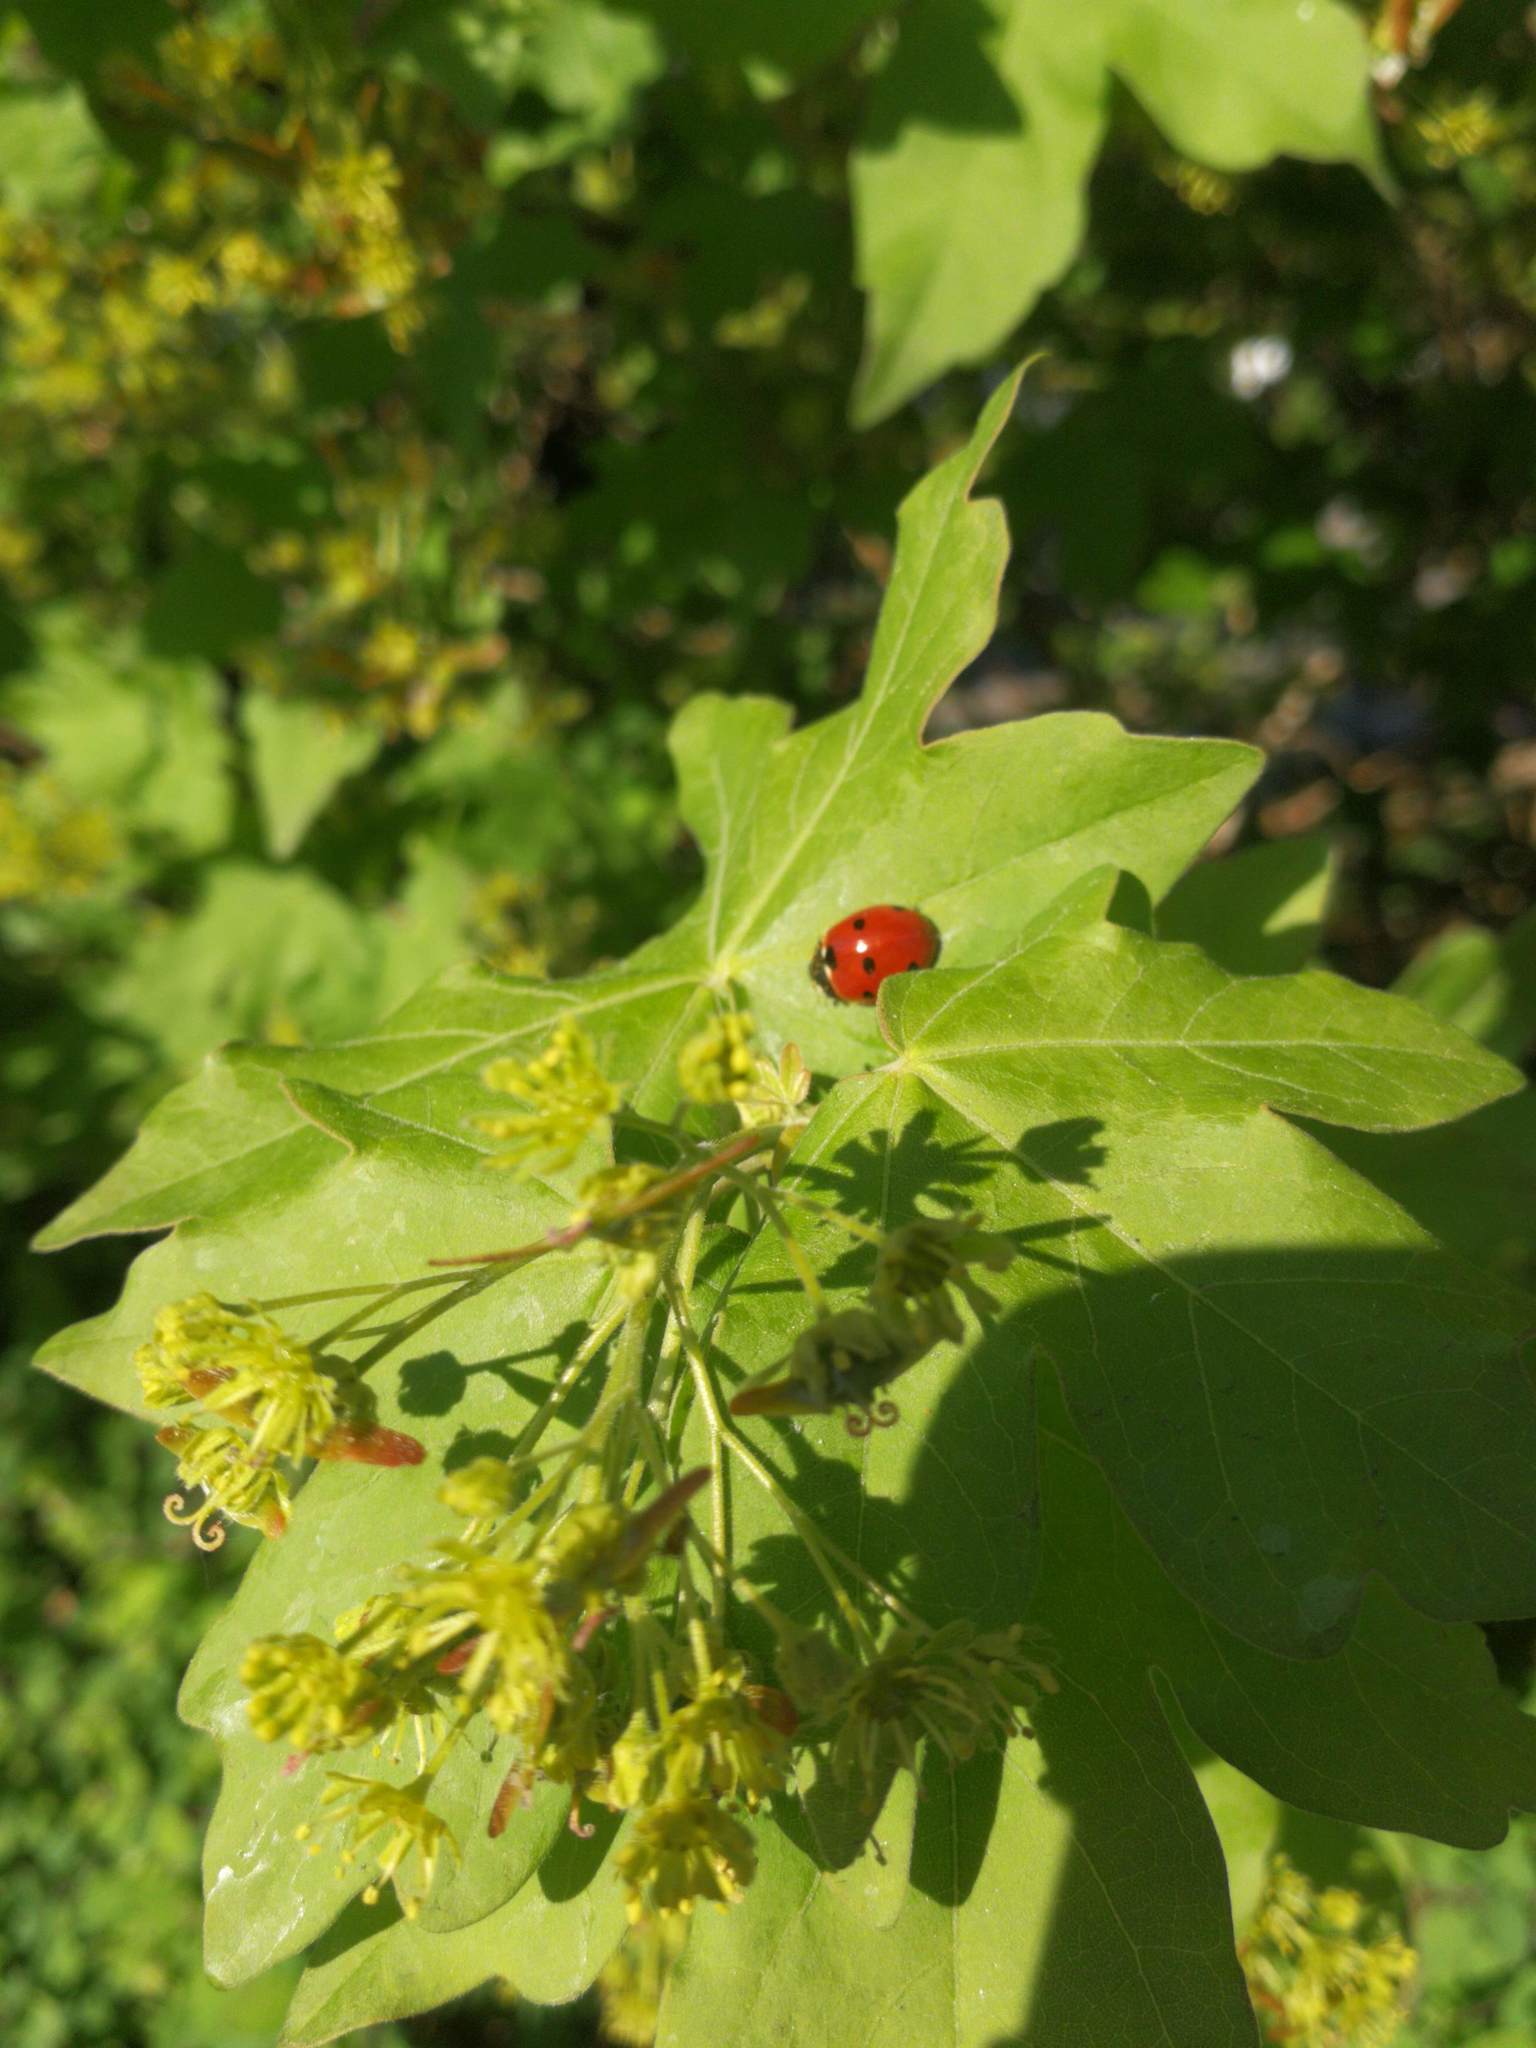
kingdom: Animalia
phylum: Arthropoda
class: Insecta
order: Coleoptera
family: Coccinellidae
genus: Coccinella
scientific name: Coccinella septempunctata
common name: Sevenspotted lady beetle
